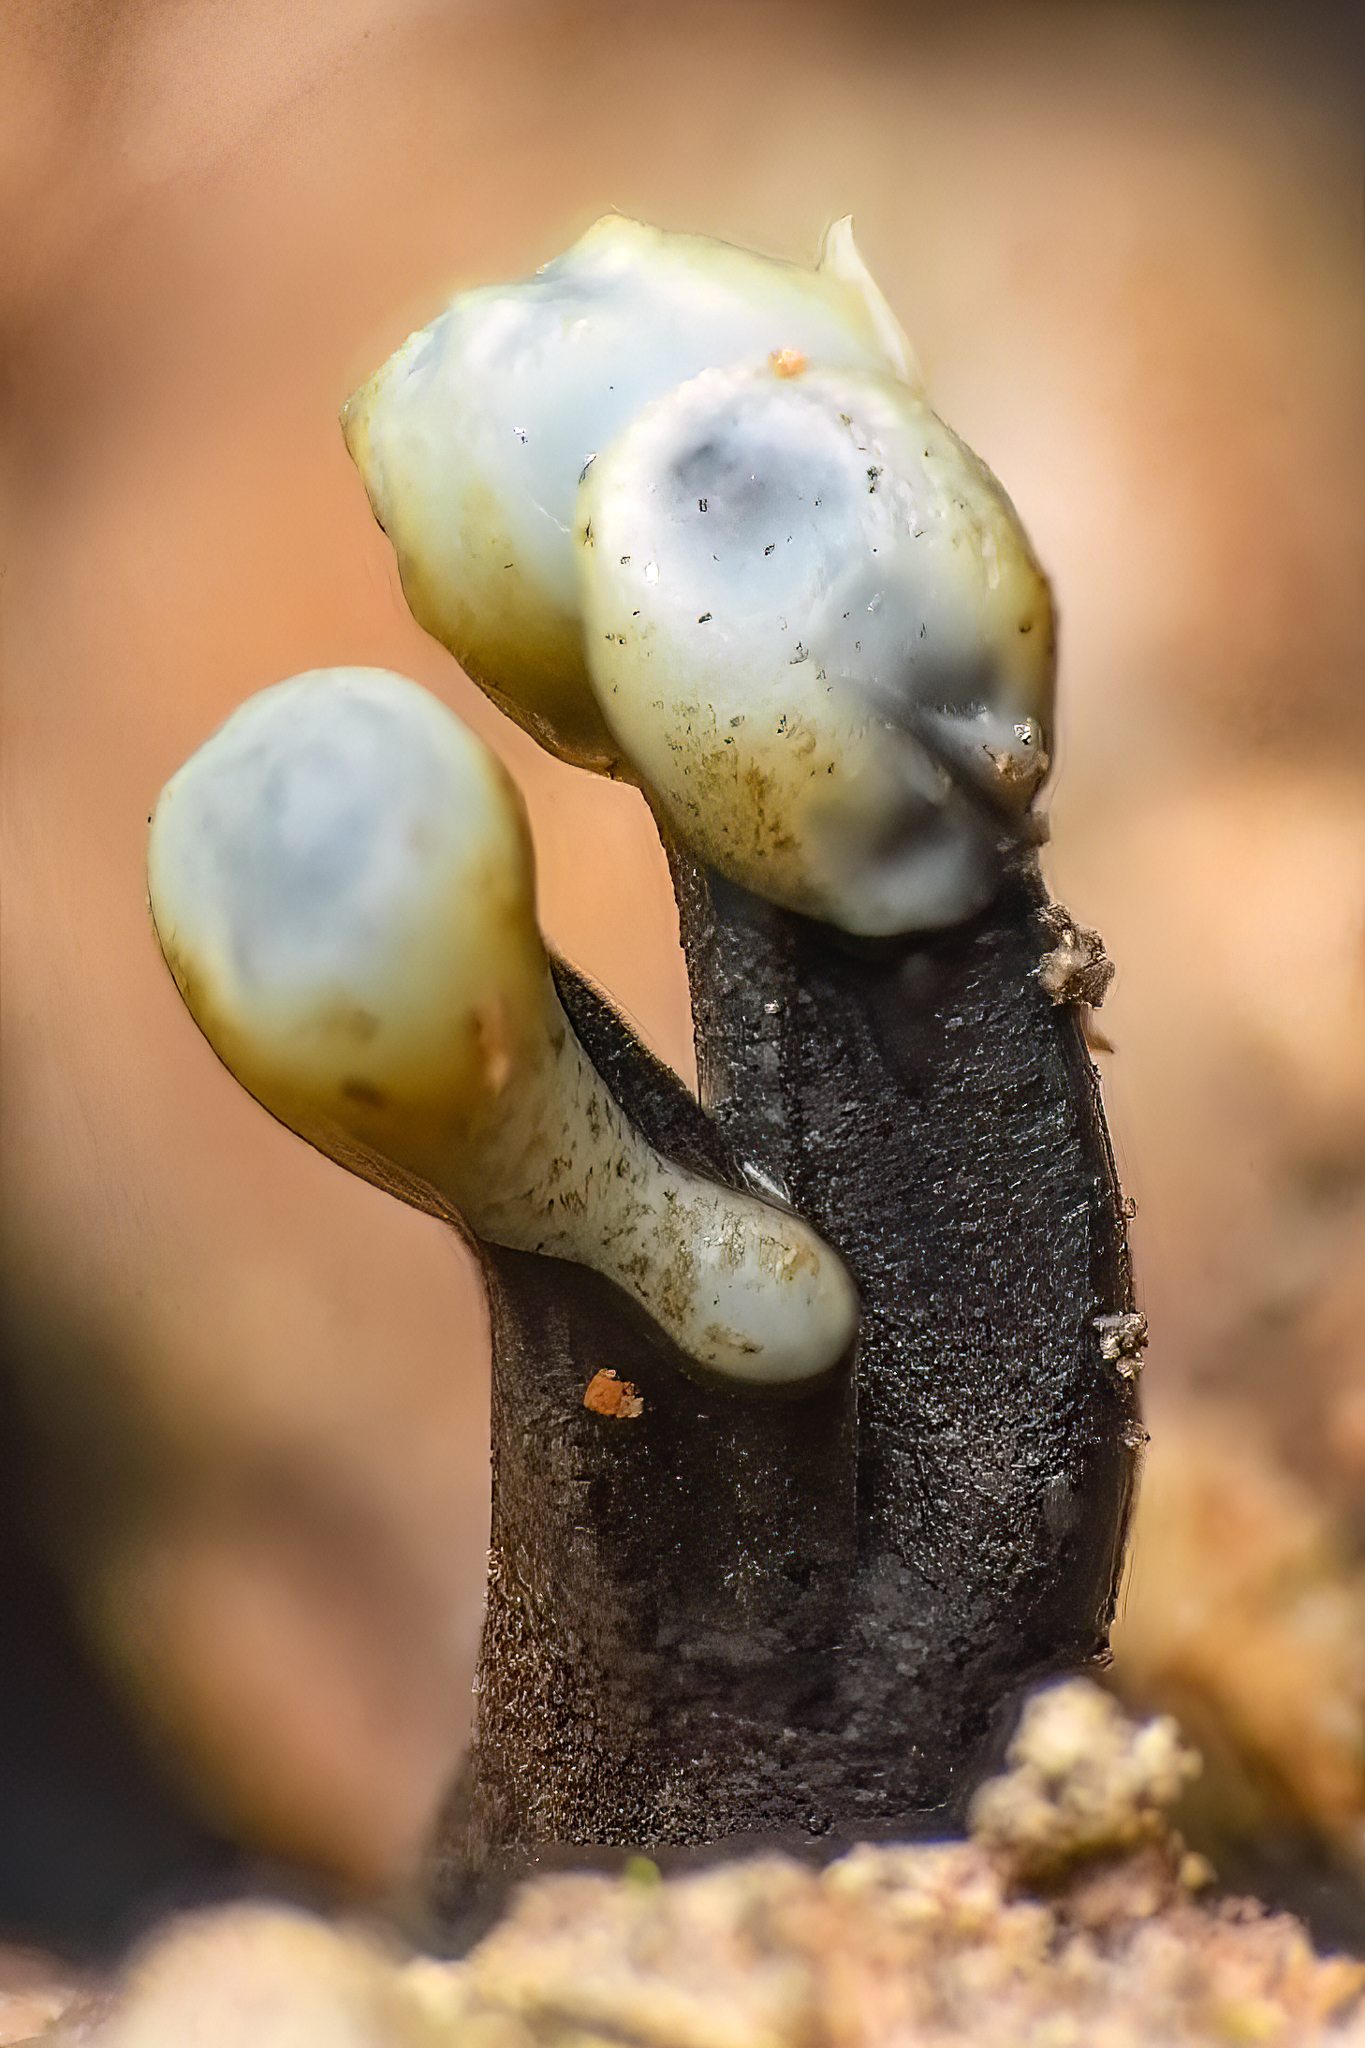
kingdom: Fungi
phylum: Ascomycota
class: Leotiomycetes
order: Helotiales
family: Bulgariaceae
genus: Holwaya
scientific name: Holwaya mucida
